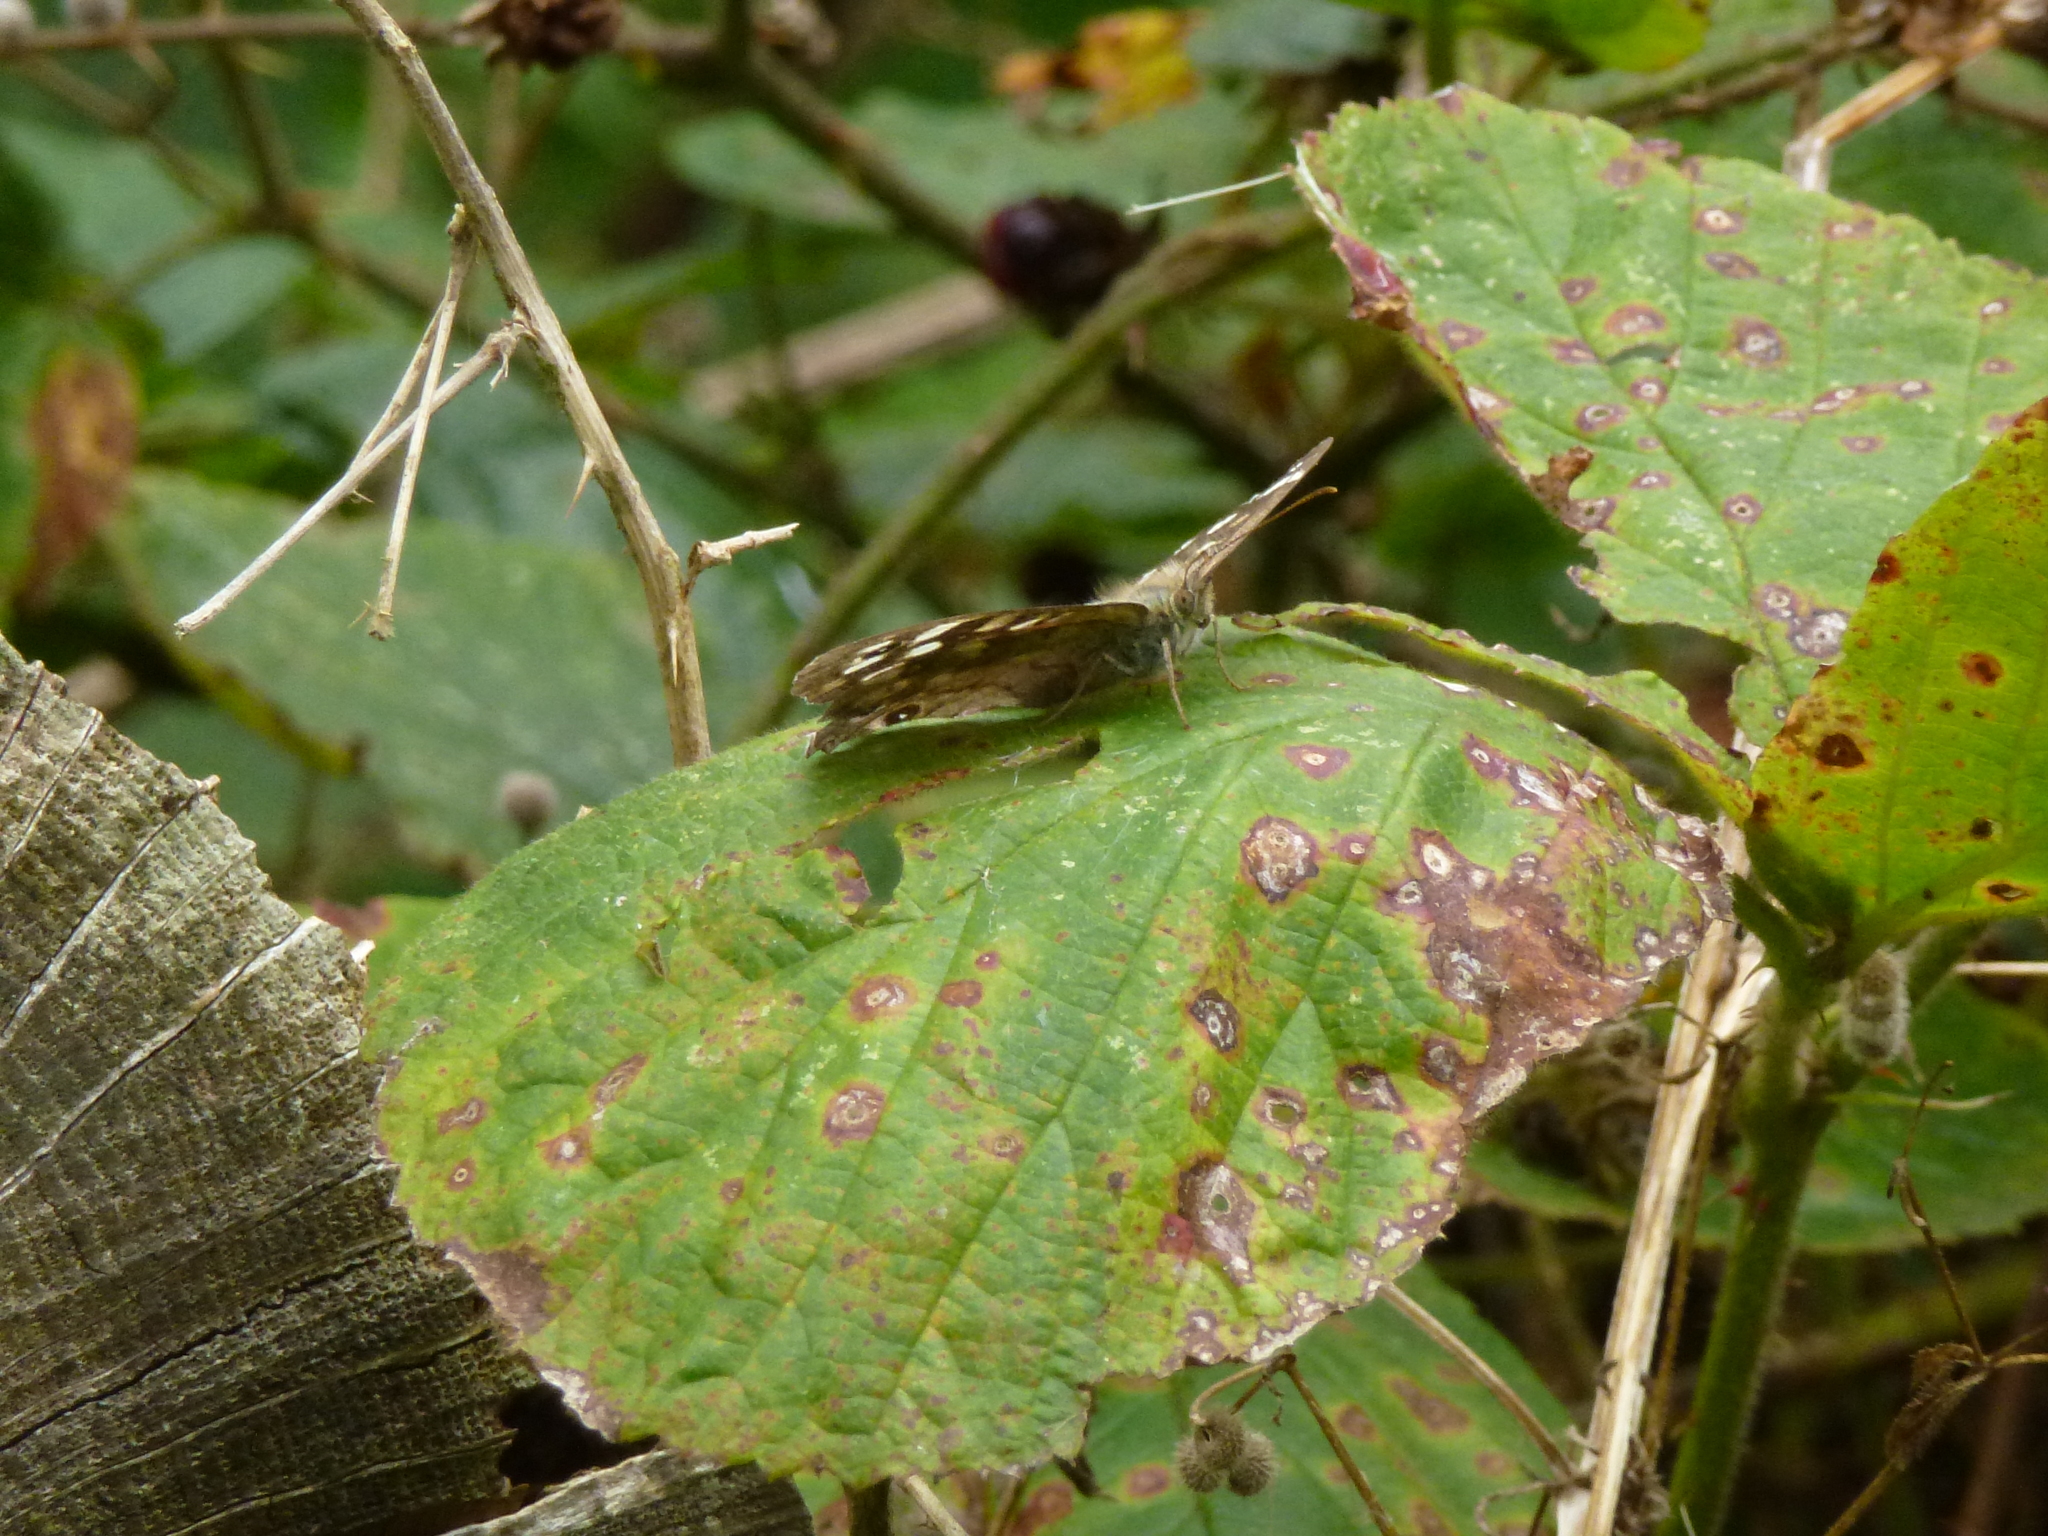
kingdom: Animalia
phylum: Arthropoda
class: Insecta
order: Lepidoptera
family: Nymphalidae
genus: Pararge
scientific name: Pararge aegeria
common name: Speckled wood
